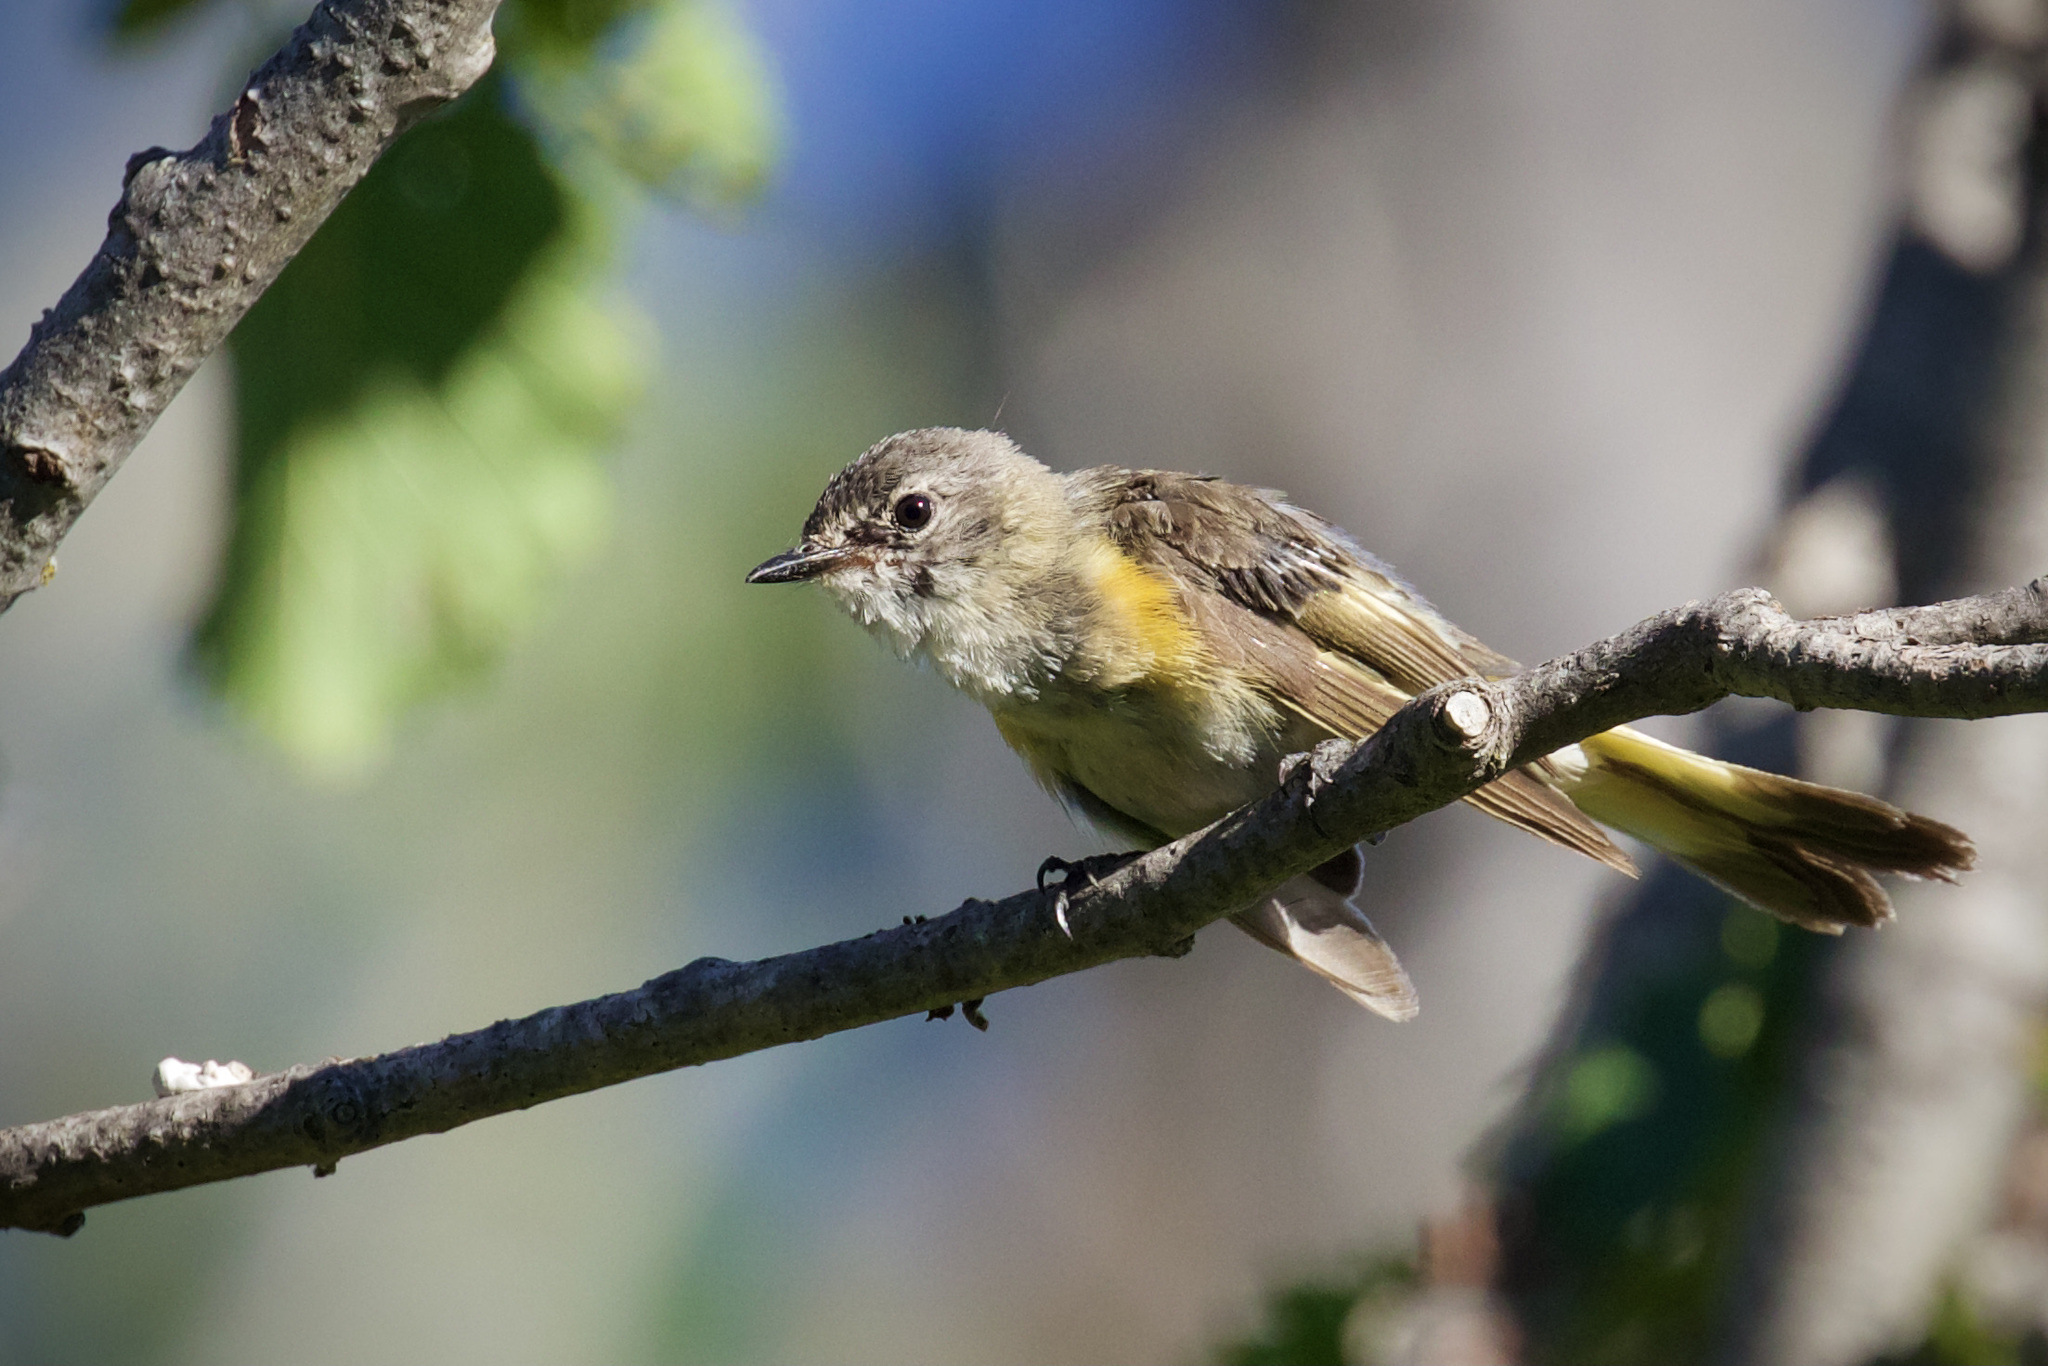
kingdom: Animalia
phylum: Chordata
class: Aves
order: Passeriformes
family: Parulidae
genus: Setophaga
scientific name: Setophaga ruticilla
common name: American redstart
